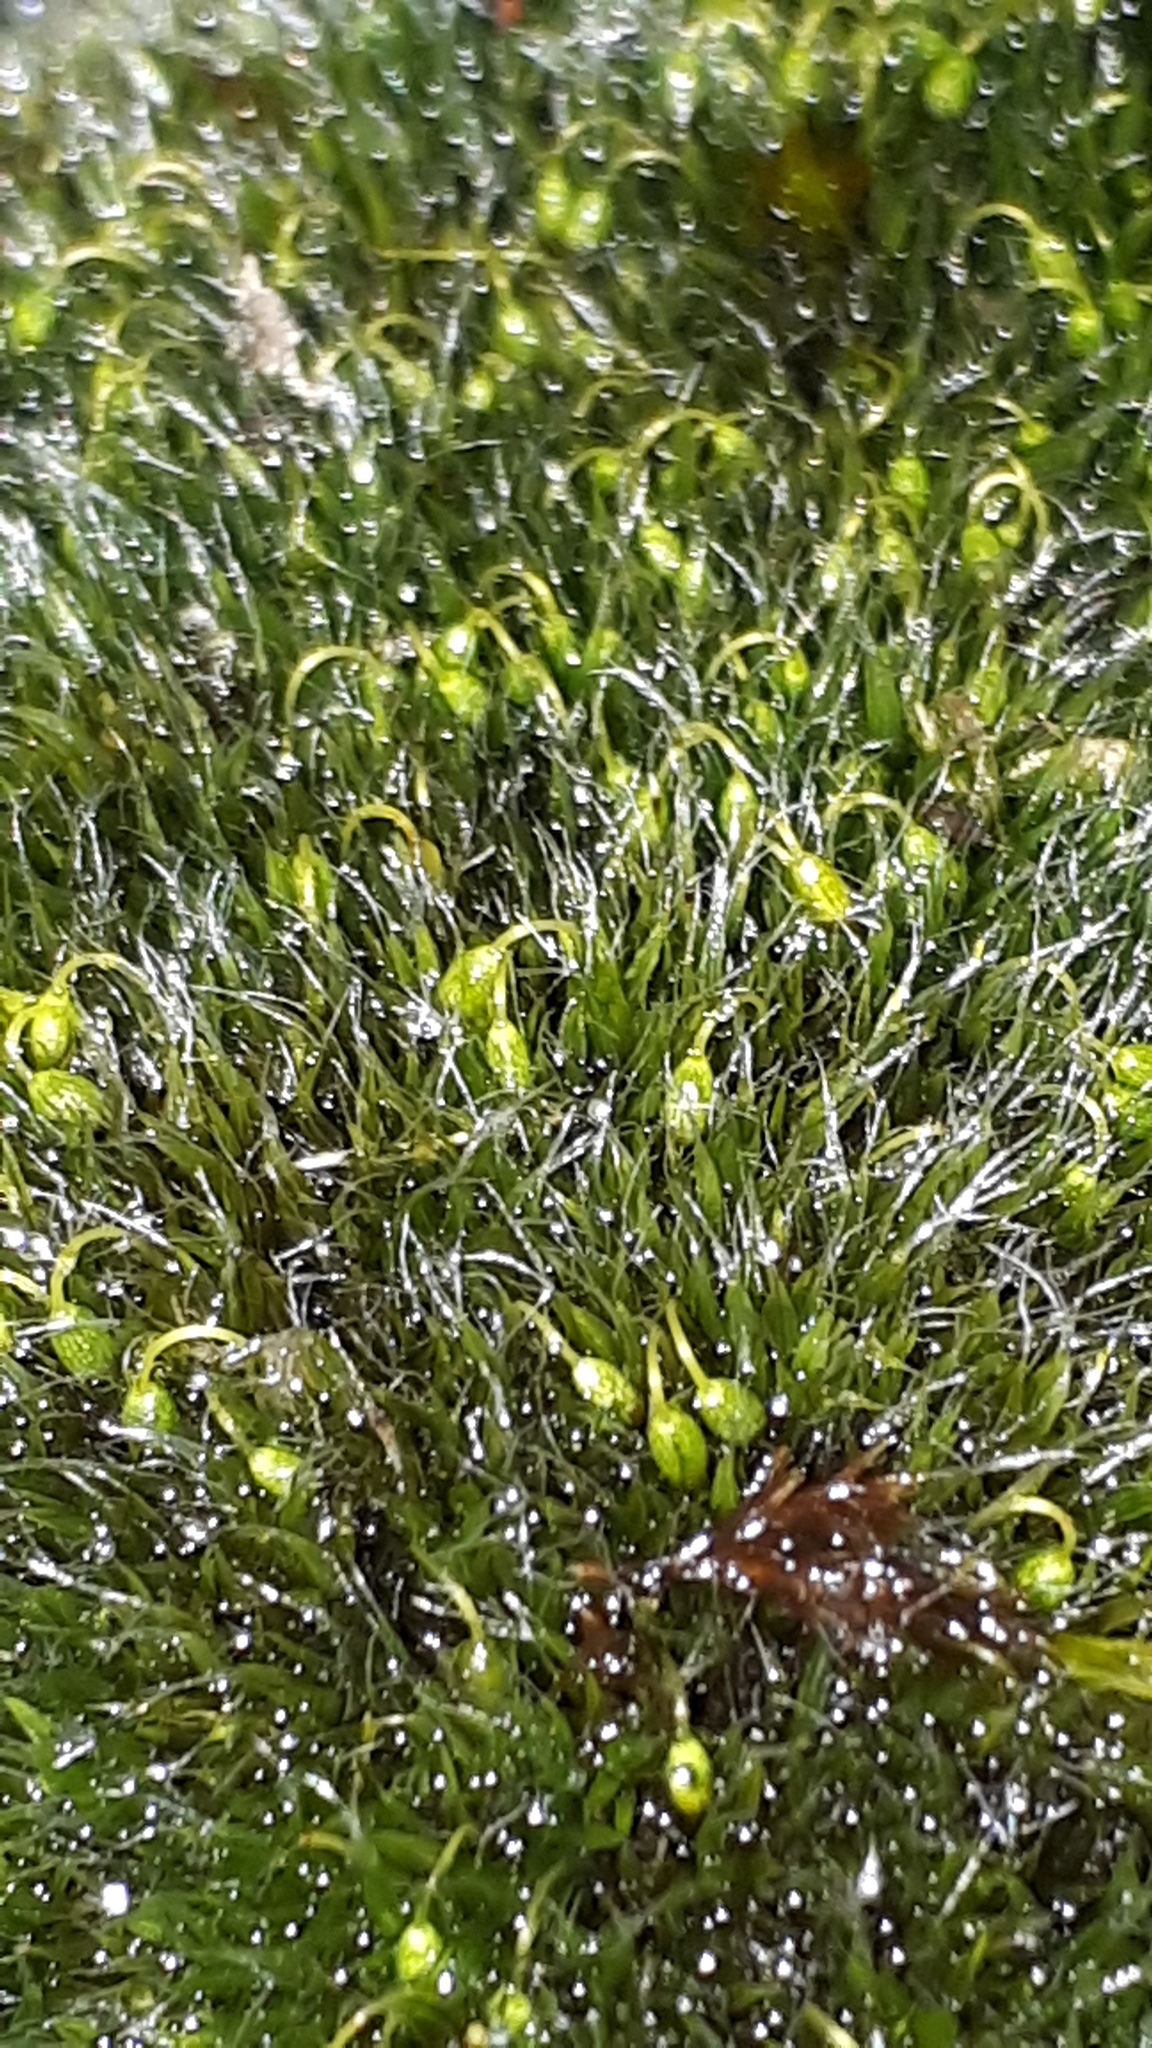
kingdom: Plantae
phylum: Bryophyta
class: Bryopsida
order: Grimmiales
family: Grimmiaceae
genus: Grimmia
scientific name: Grimmia pulvinata
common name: Grey-cushioned grimmia
